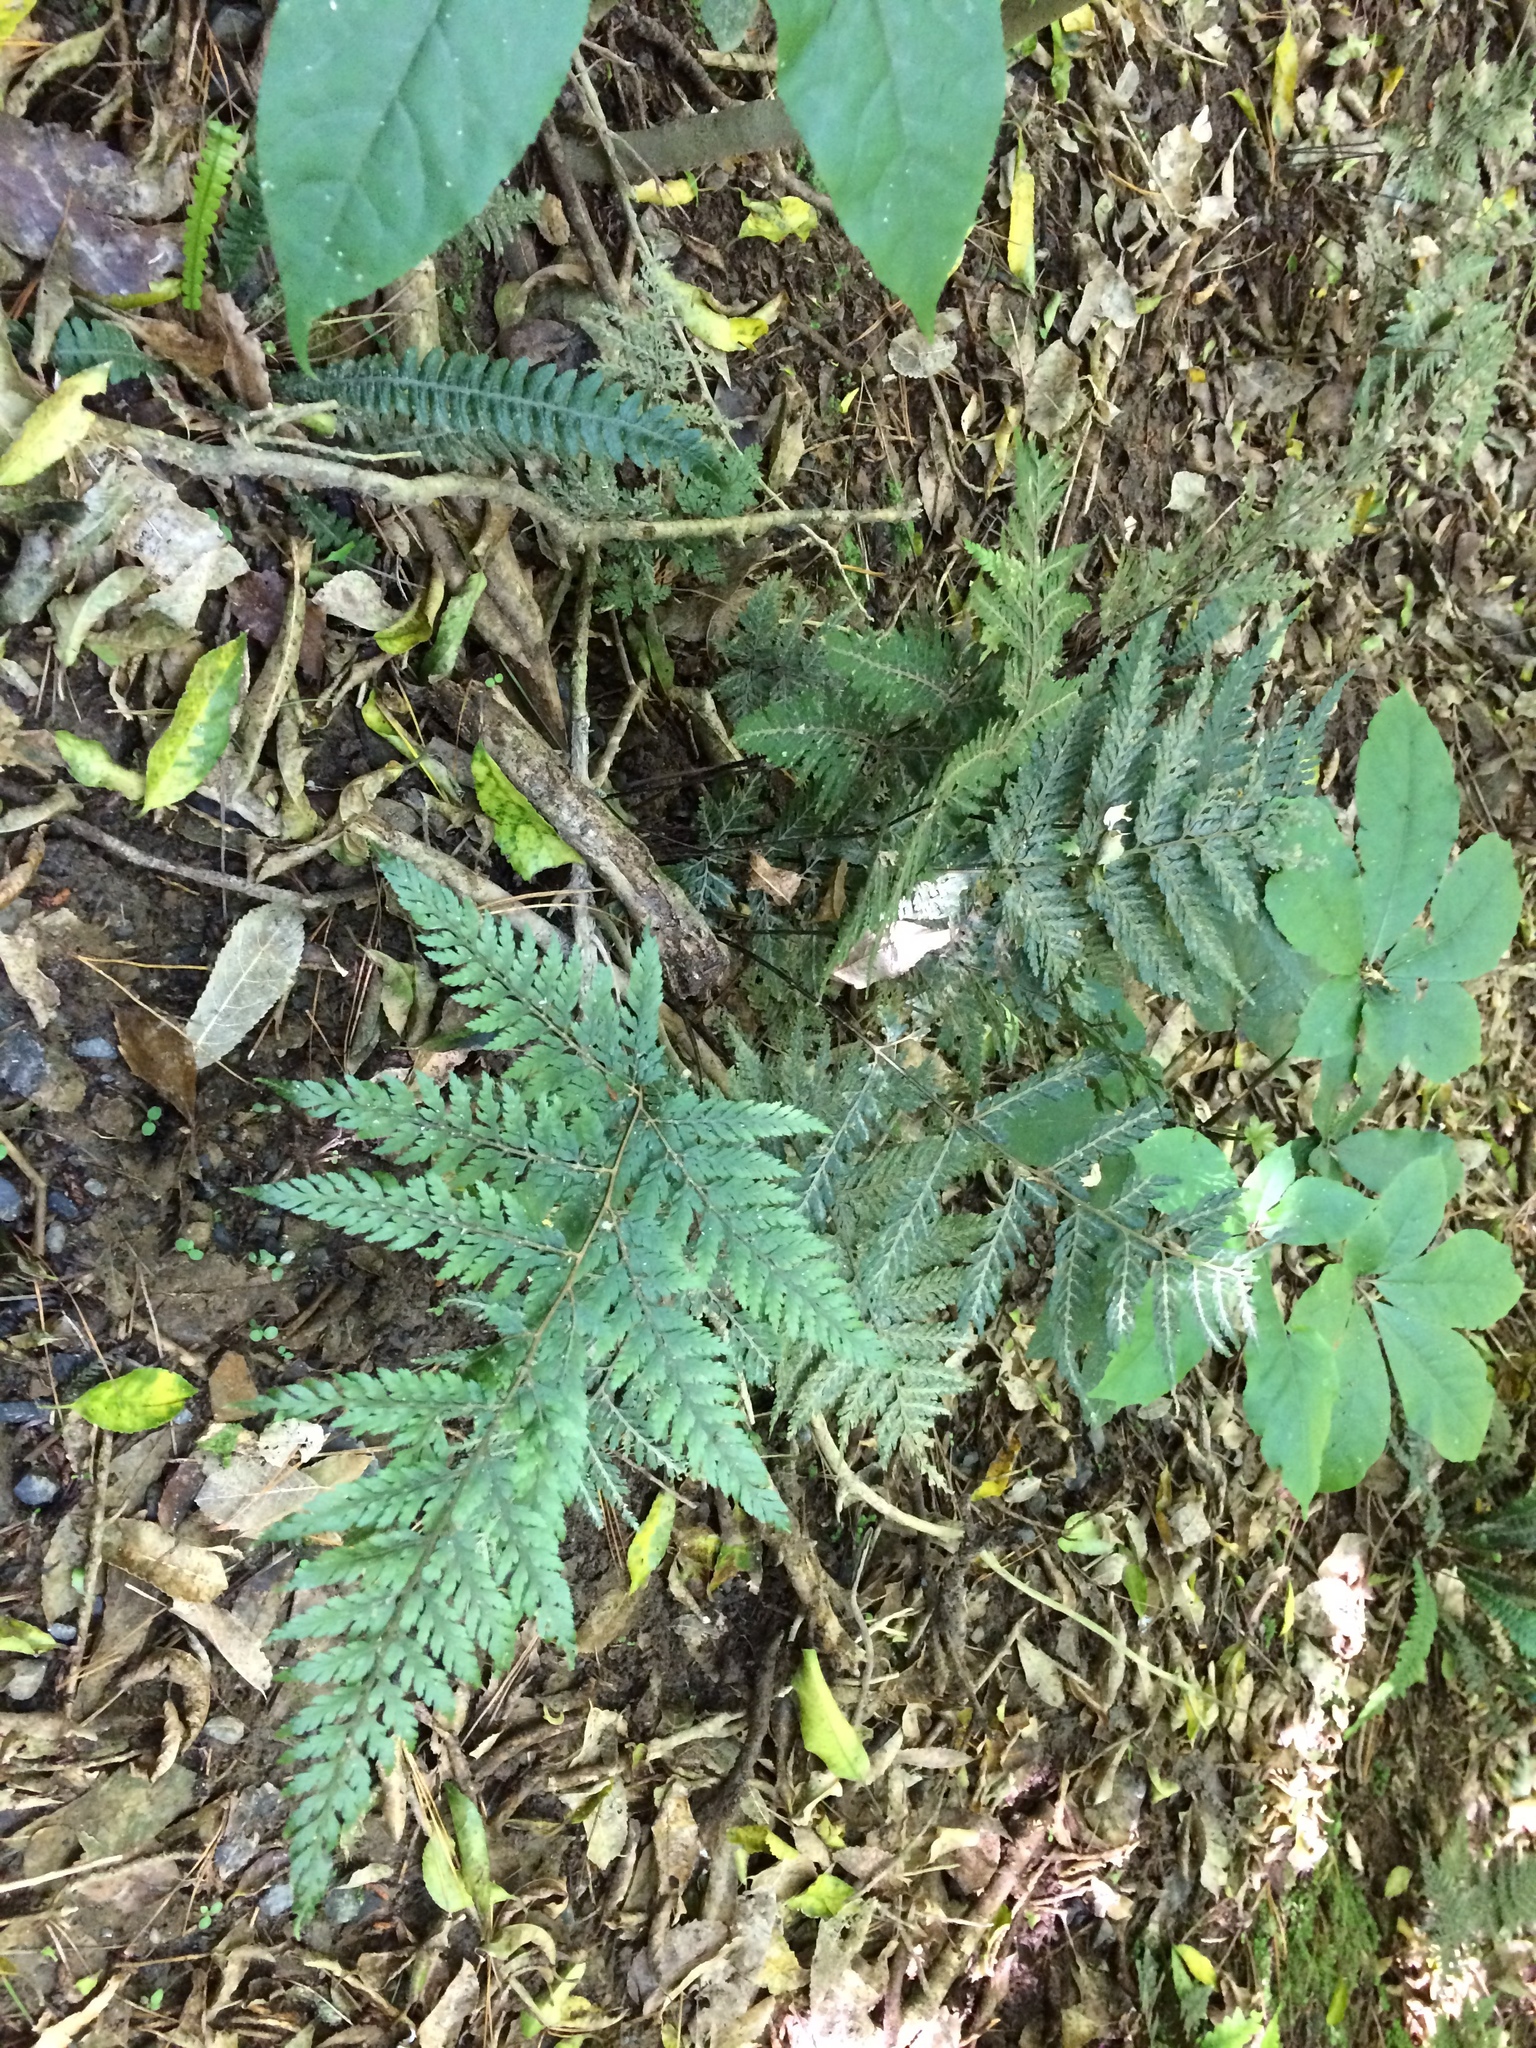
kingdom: Plantae
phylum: Tracheophyta
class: Polypodiopsida
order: Polypodiales
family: Dryopteridaceae
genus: Parapolystichum
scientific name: Parapolystichum glabellum
